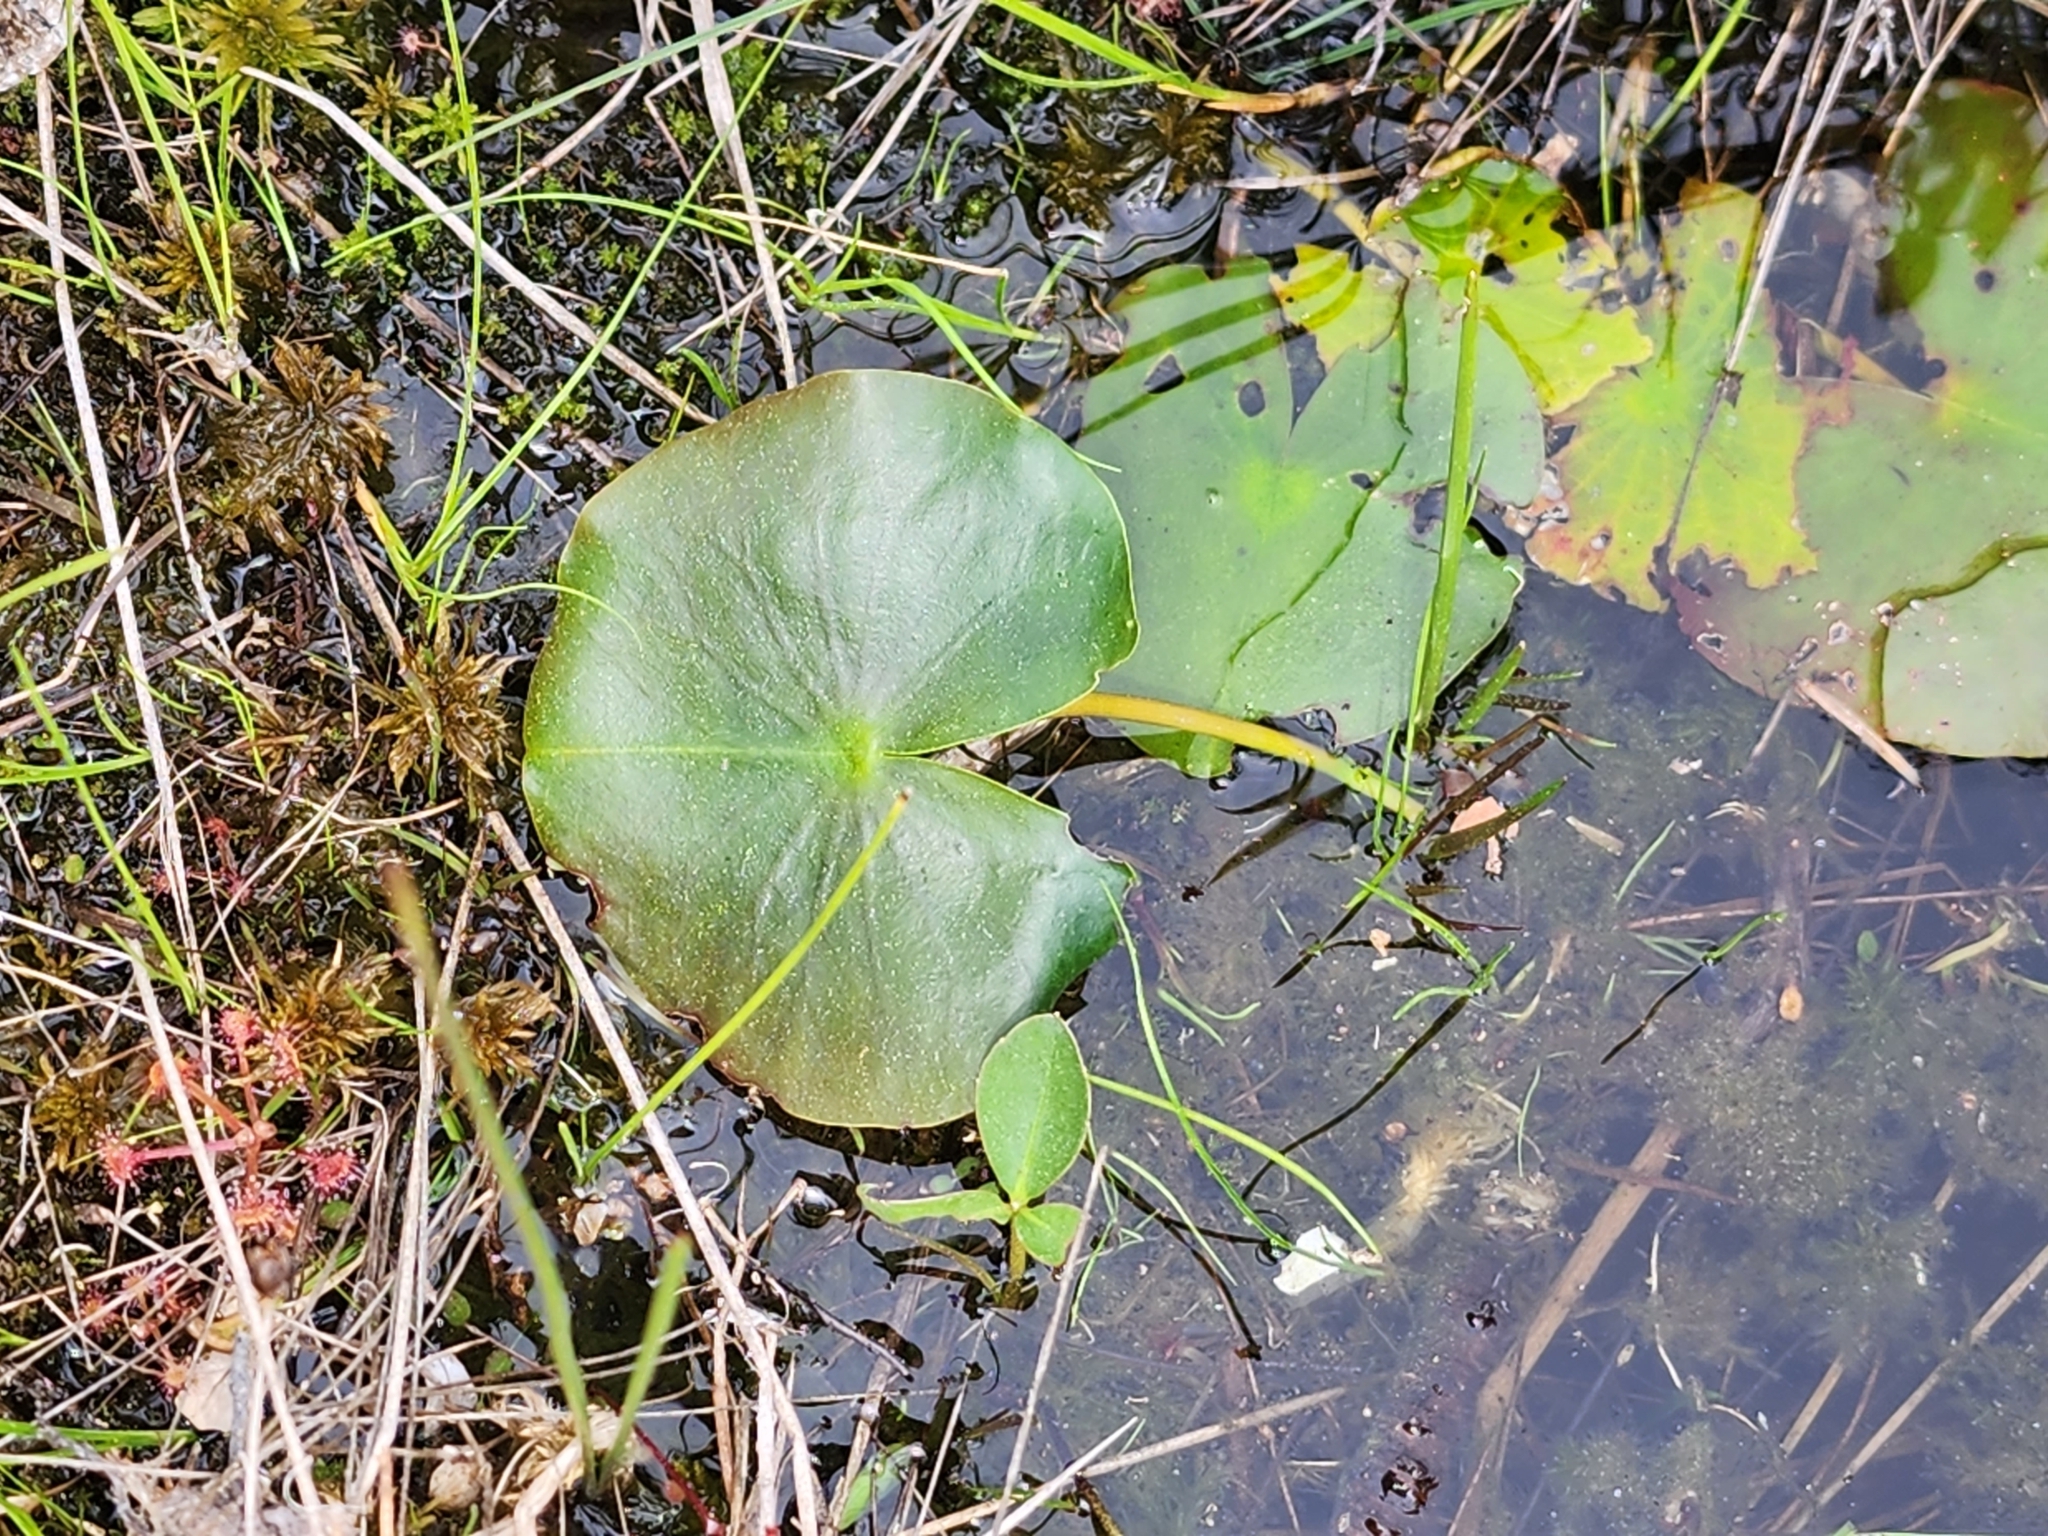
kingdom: Plantae
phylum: Tracheophyta
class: Magnoliopsida
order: Nymphaeales
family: Nymphaeaceae
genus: Nymphaea
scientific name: Nymphaea odorata
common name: Fragrant water-lily
